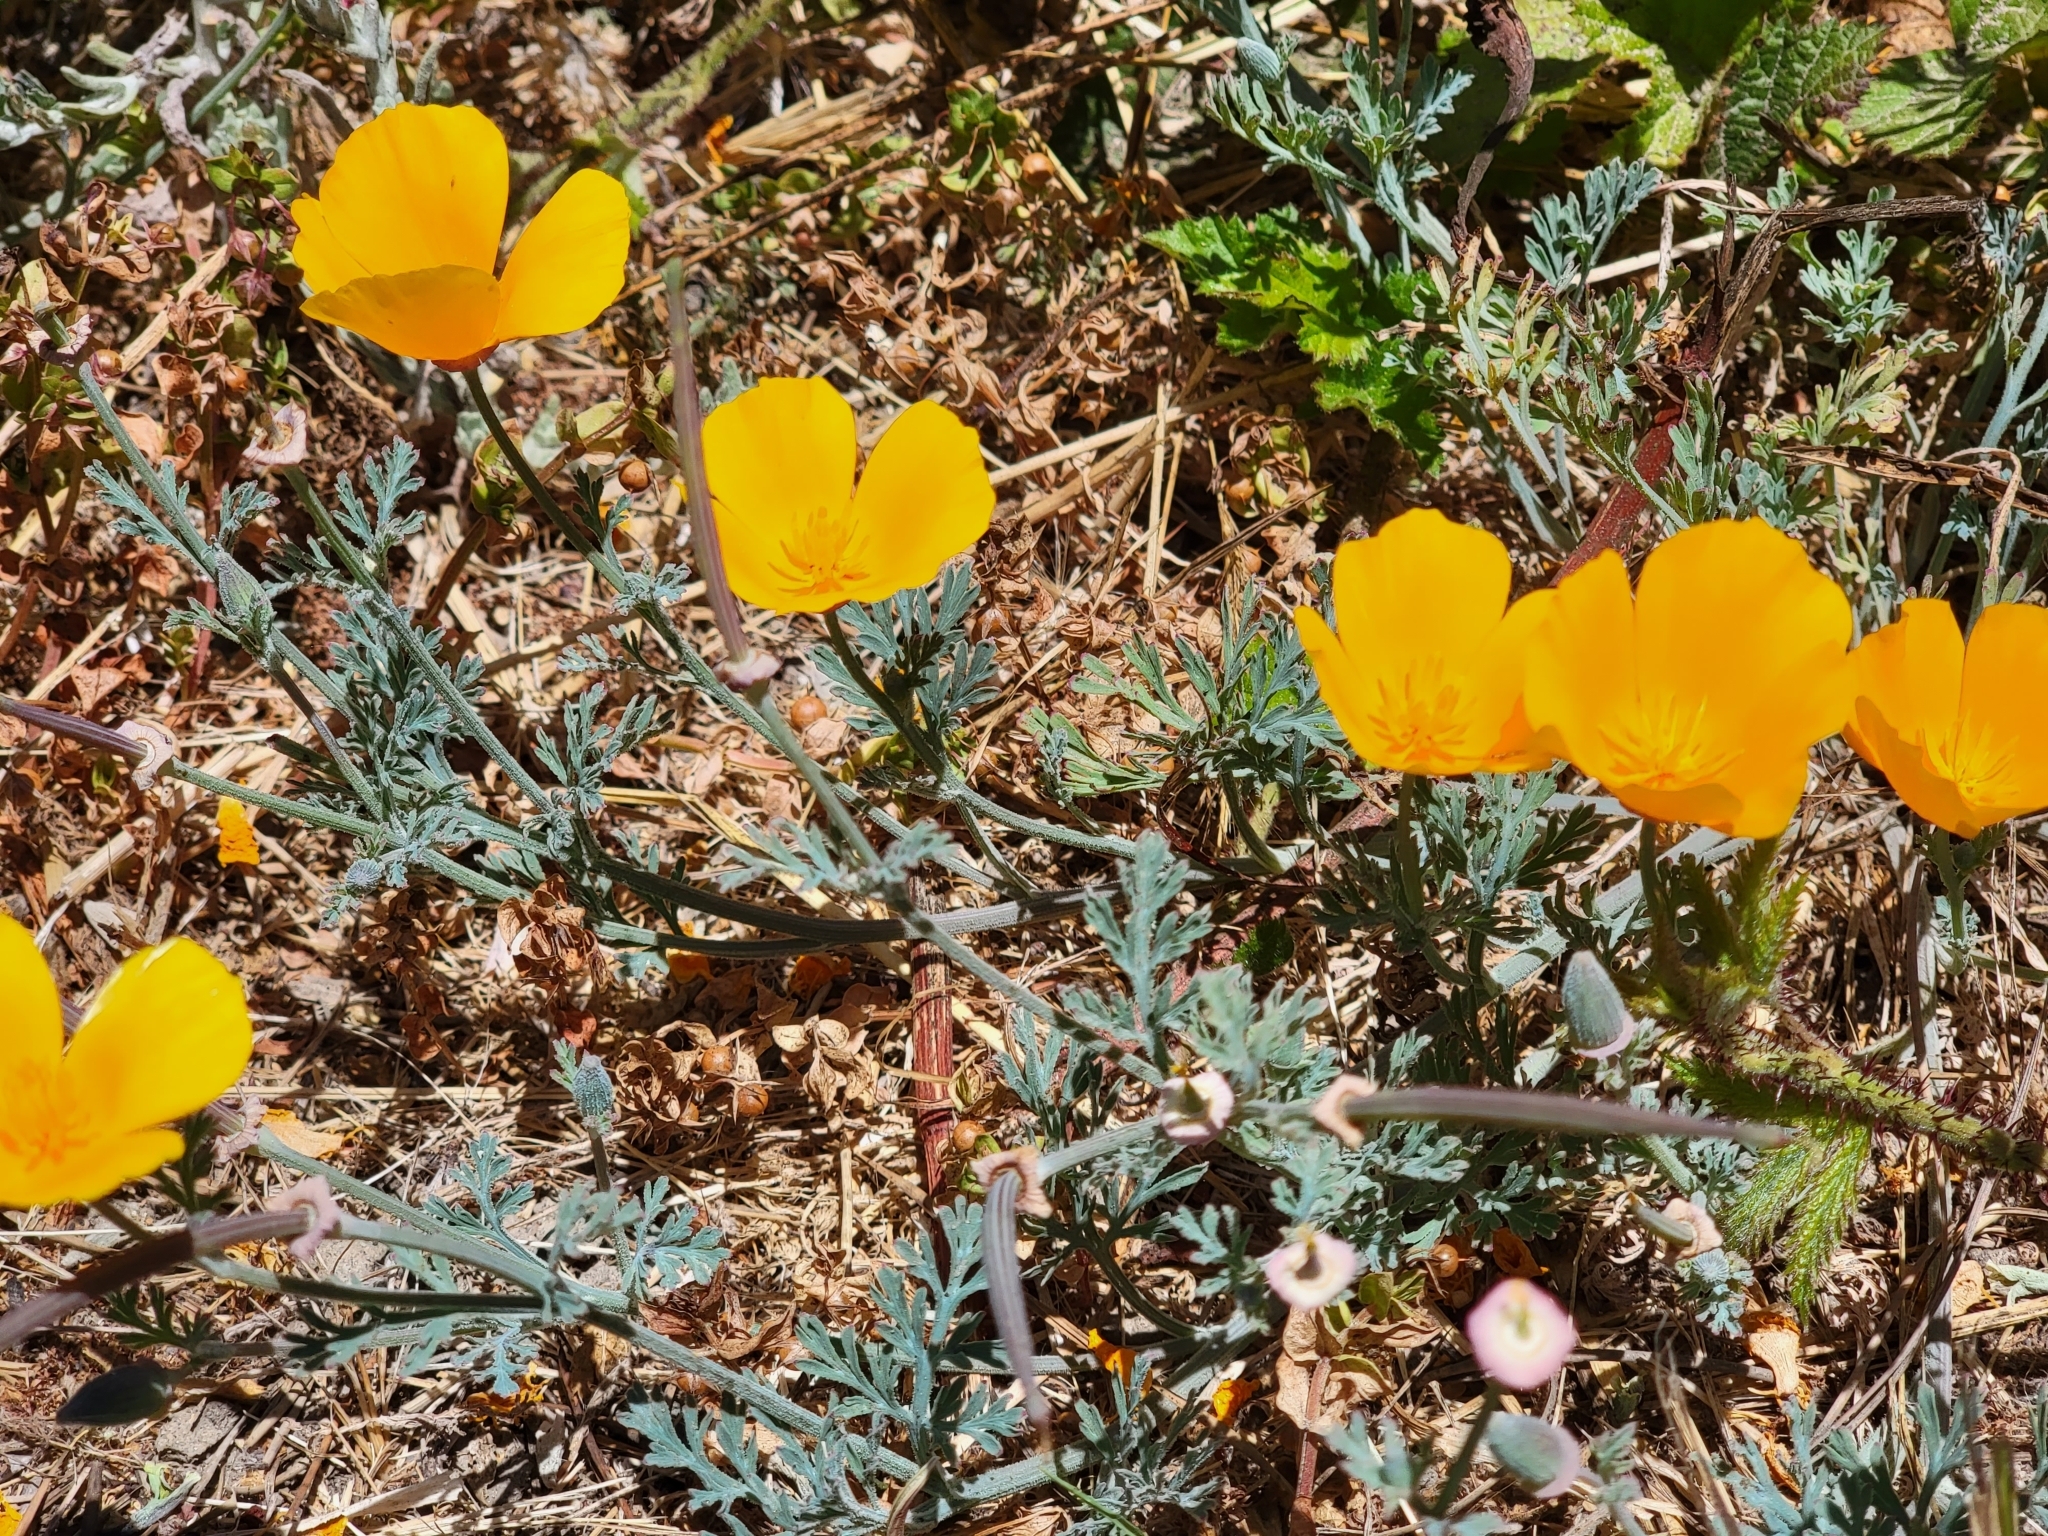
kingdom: Plantae
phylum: Tracheophyta
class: Magnoliopsida
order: Ranunculales
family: Papaveraceae
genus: Eschscholzia
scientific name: Eschscholzia californica
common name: California poppy
